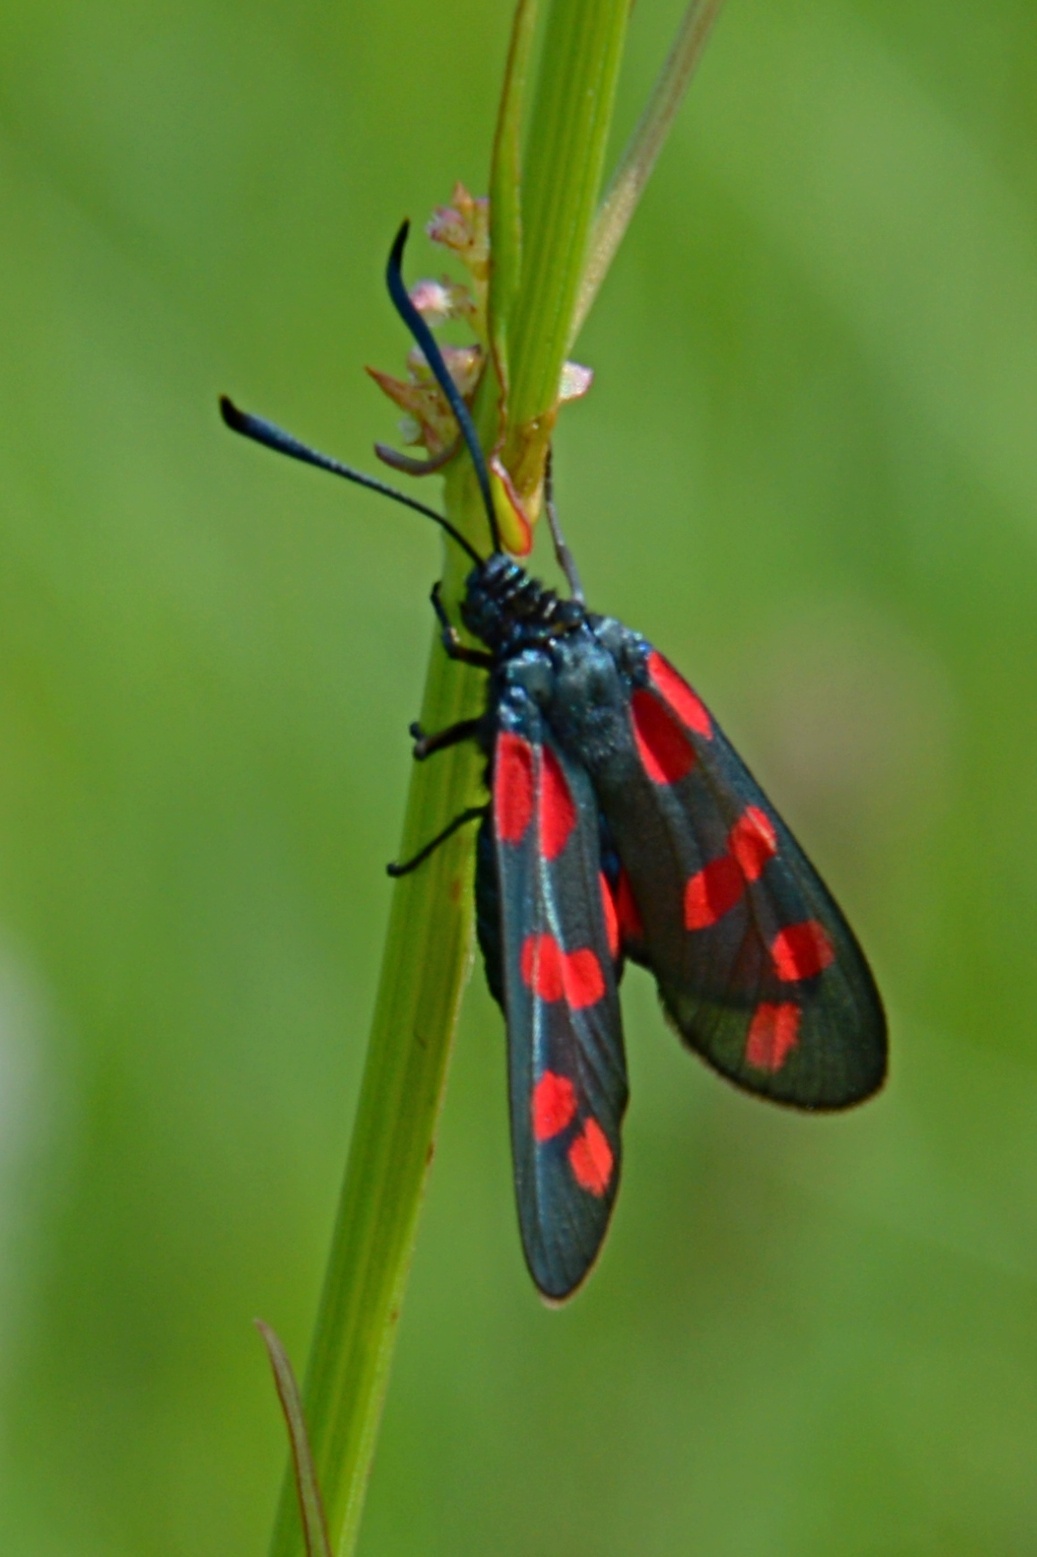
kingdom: Animalia
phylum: Arthropoda
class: Insecta
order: Lepidoptera
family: Zygaenidae
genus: Zygaena
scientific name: Zygaena filipendulae
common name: Six-spot burnet
